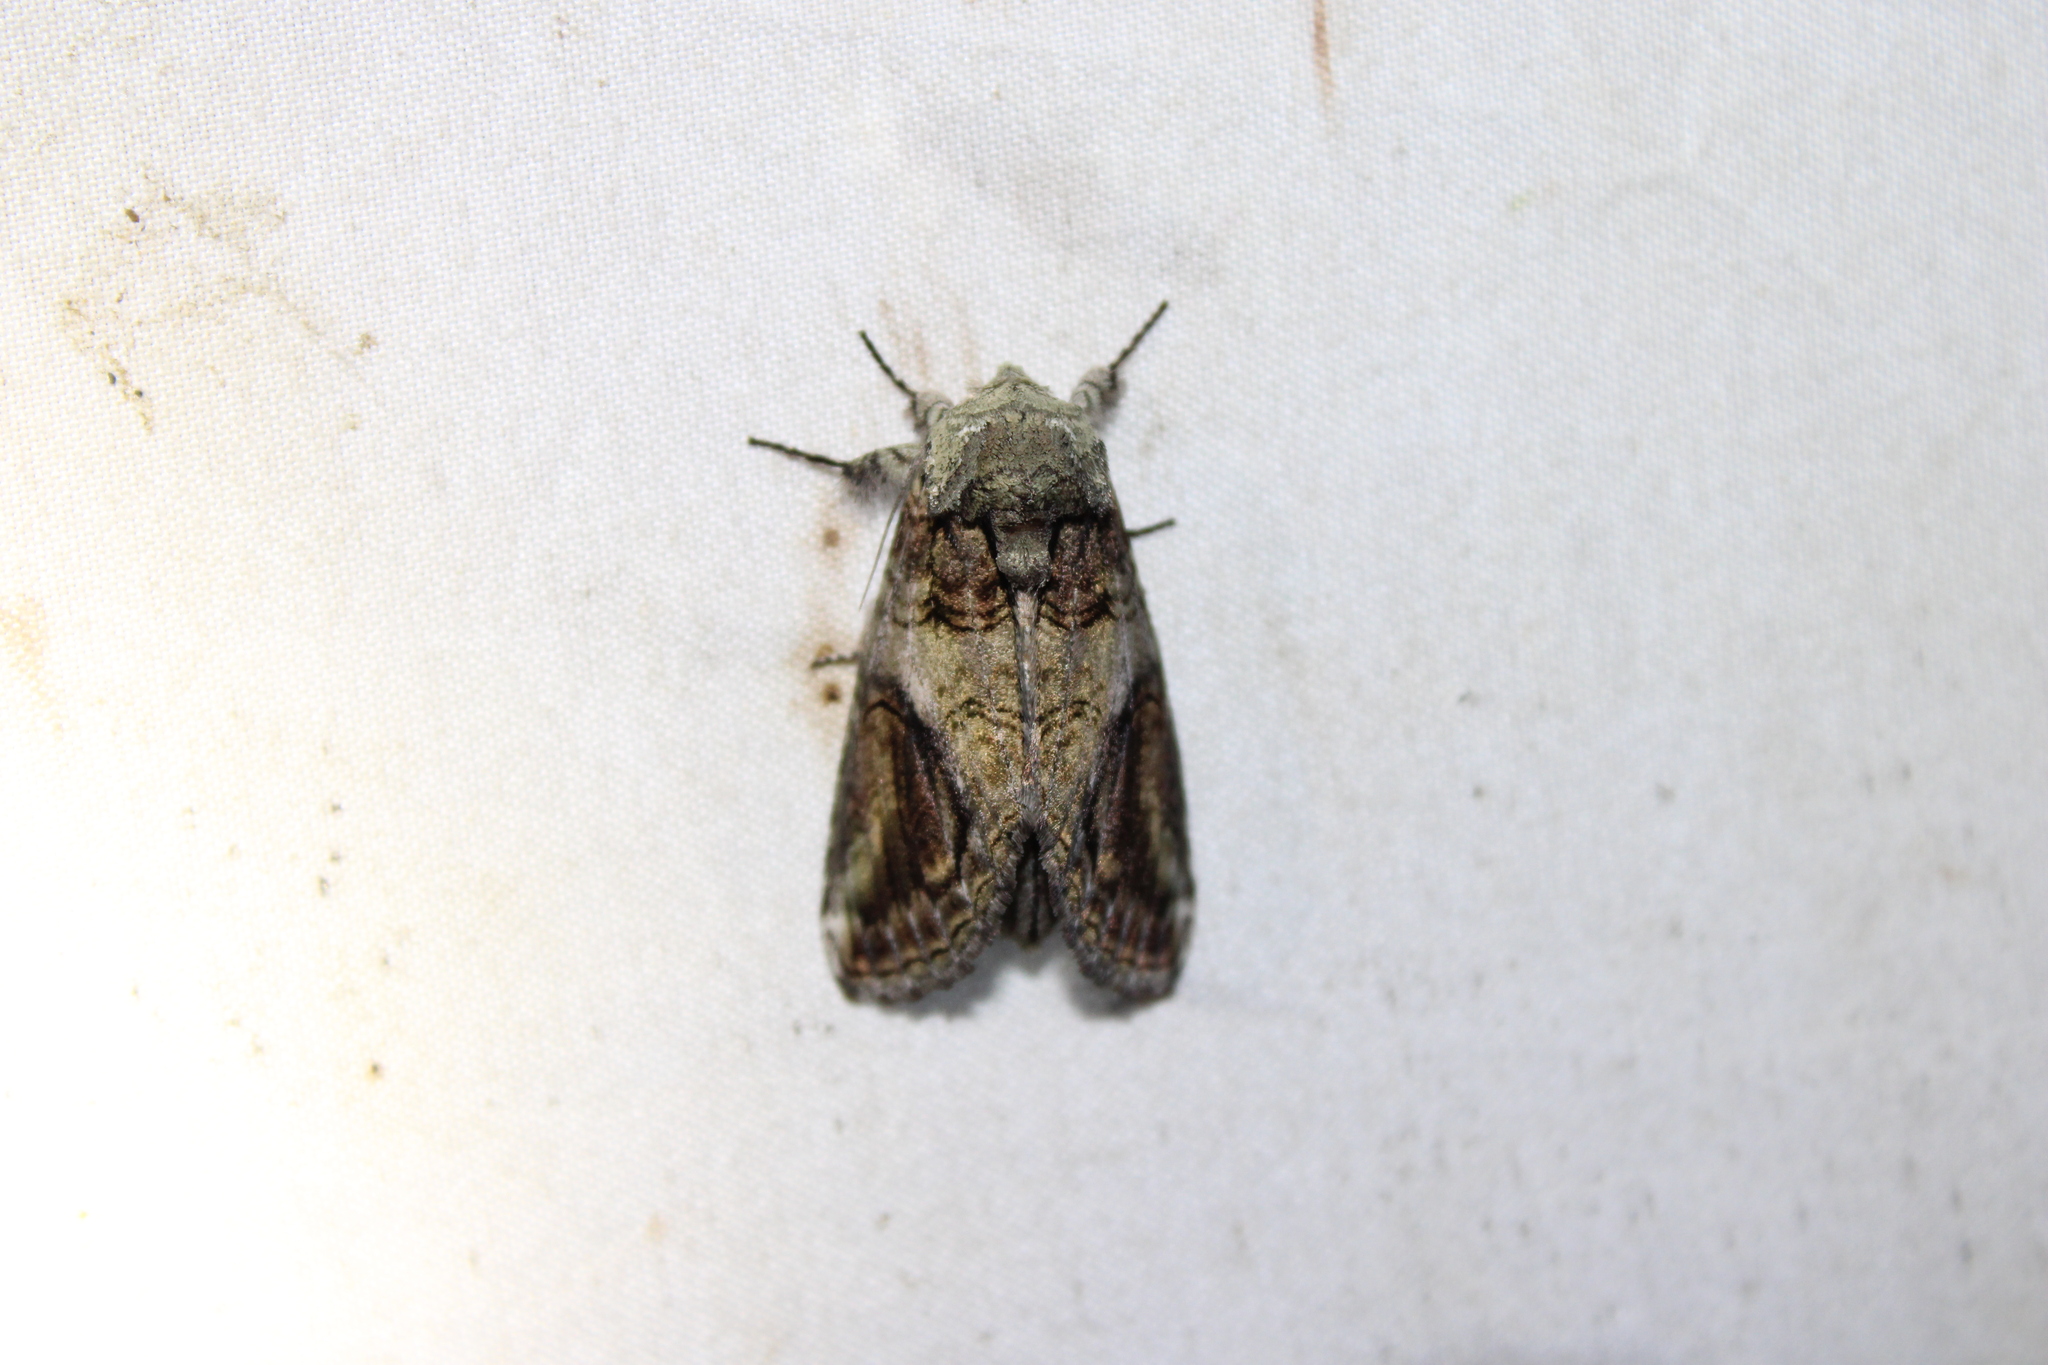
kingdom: Animalia
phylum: Arthropoda
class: Insecta
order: Lepidoptera
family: Notodontidae
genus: Heterocampa
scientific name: Heterocampa obliqua
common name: Oblique heterocampa
